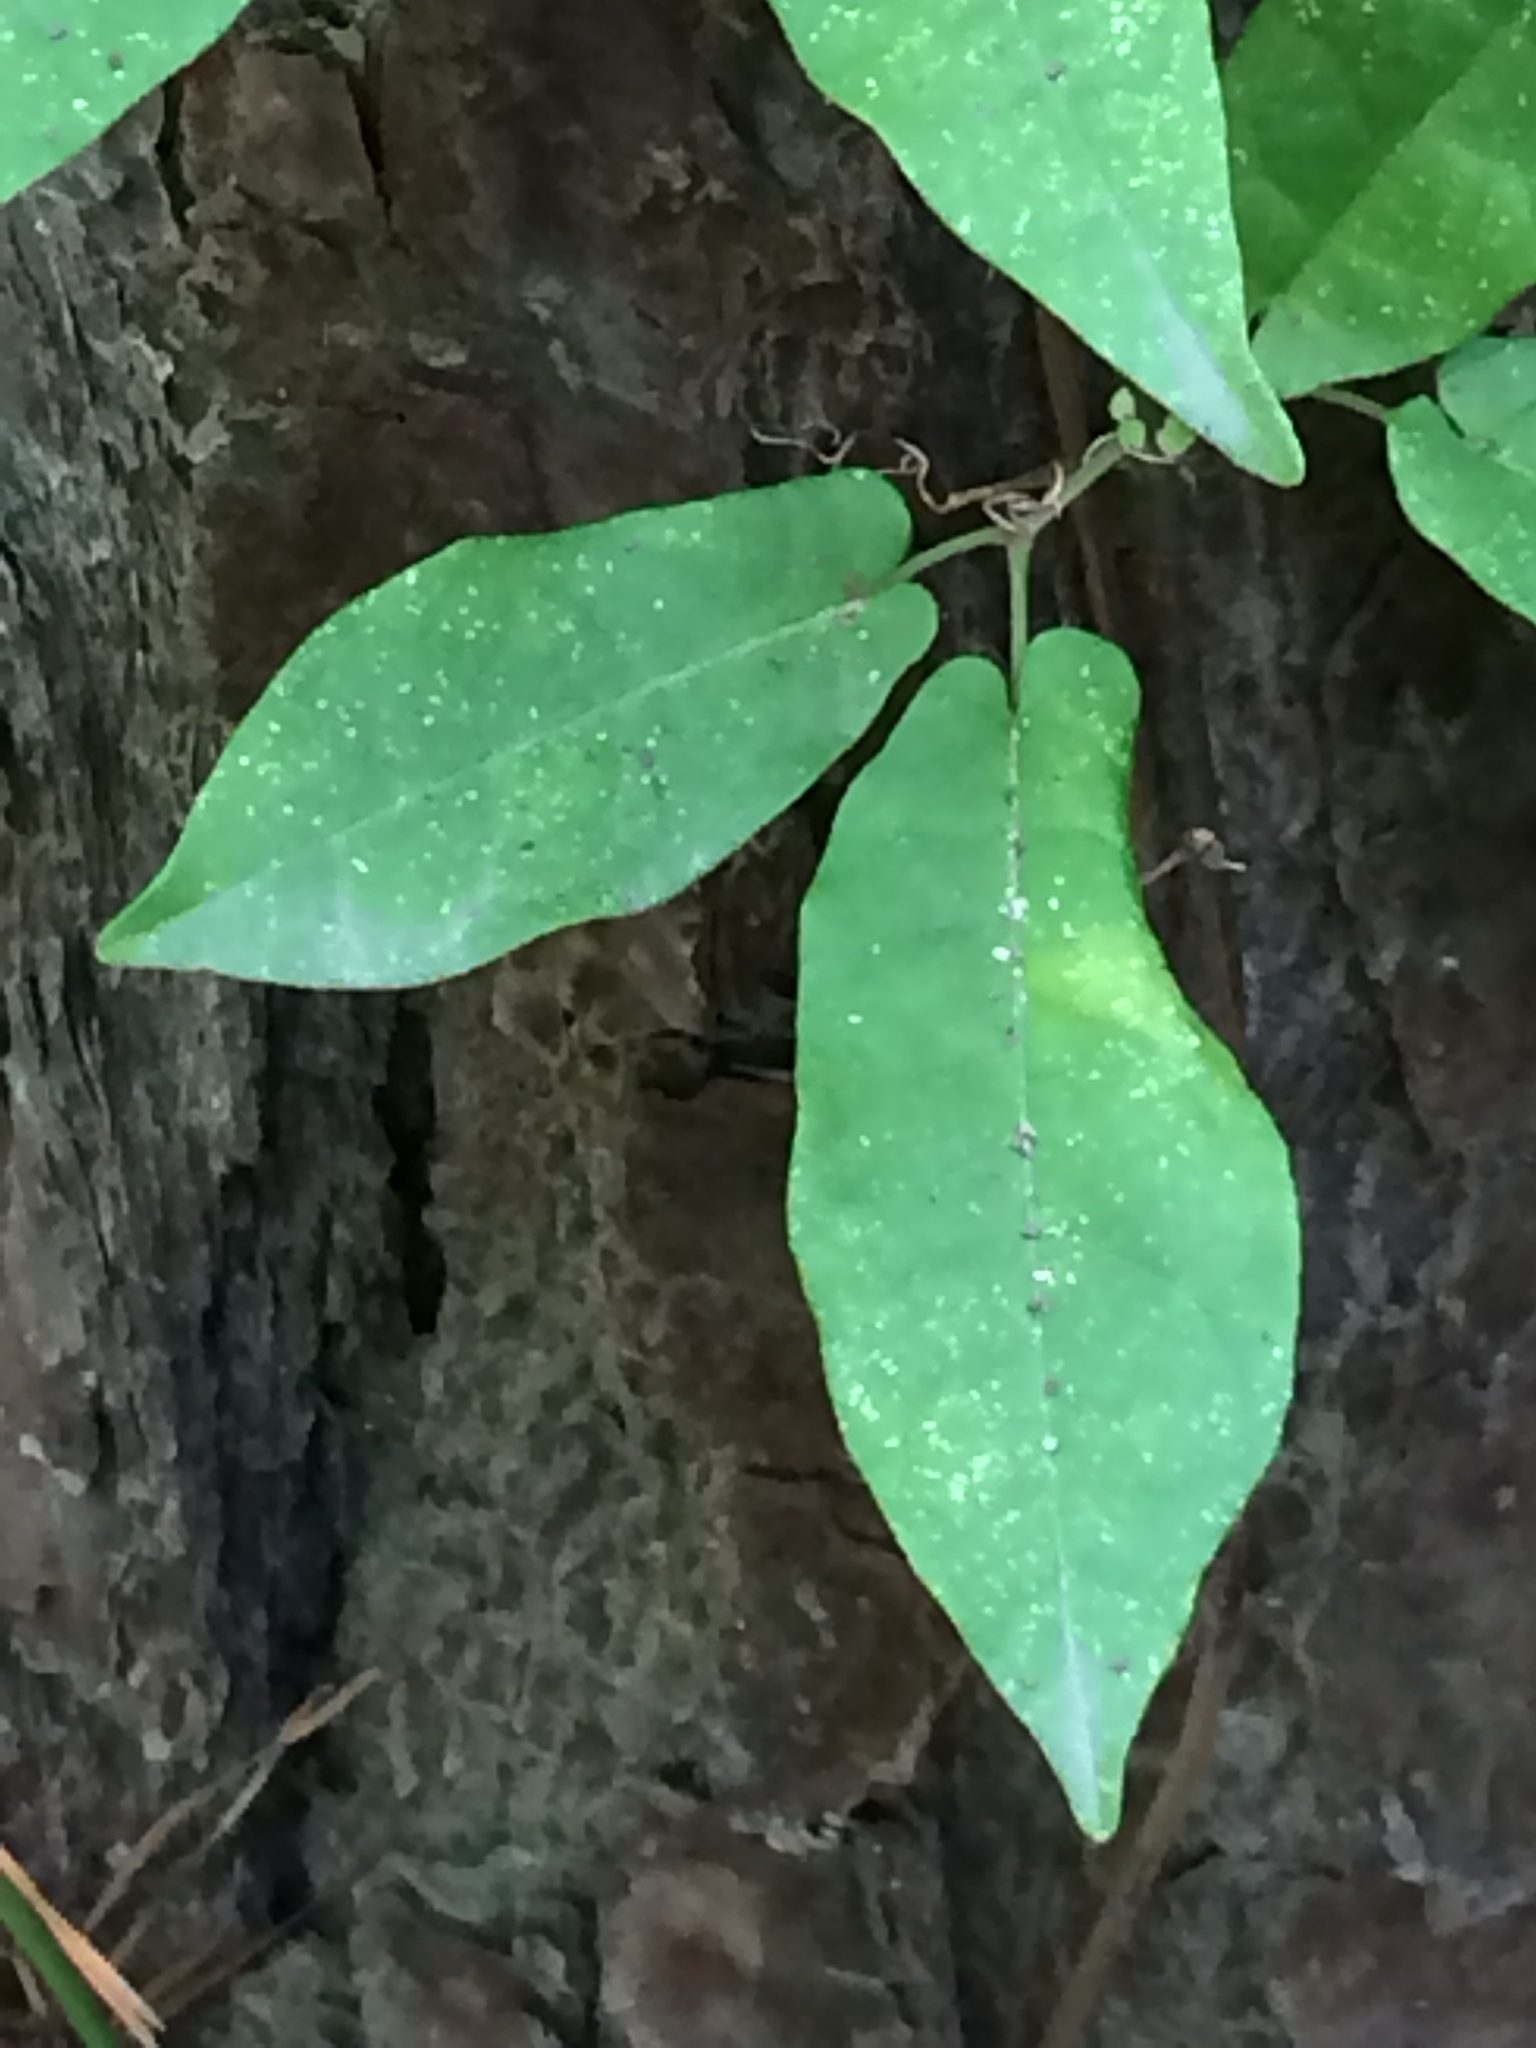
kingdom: Plantae
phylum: Tracheophyta
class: Magnoliopsida
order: Lamiales
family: Bignoniaceae
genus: Bignonia
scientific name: Bignonia capreolata
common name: Crossvine
